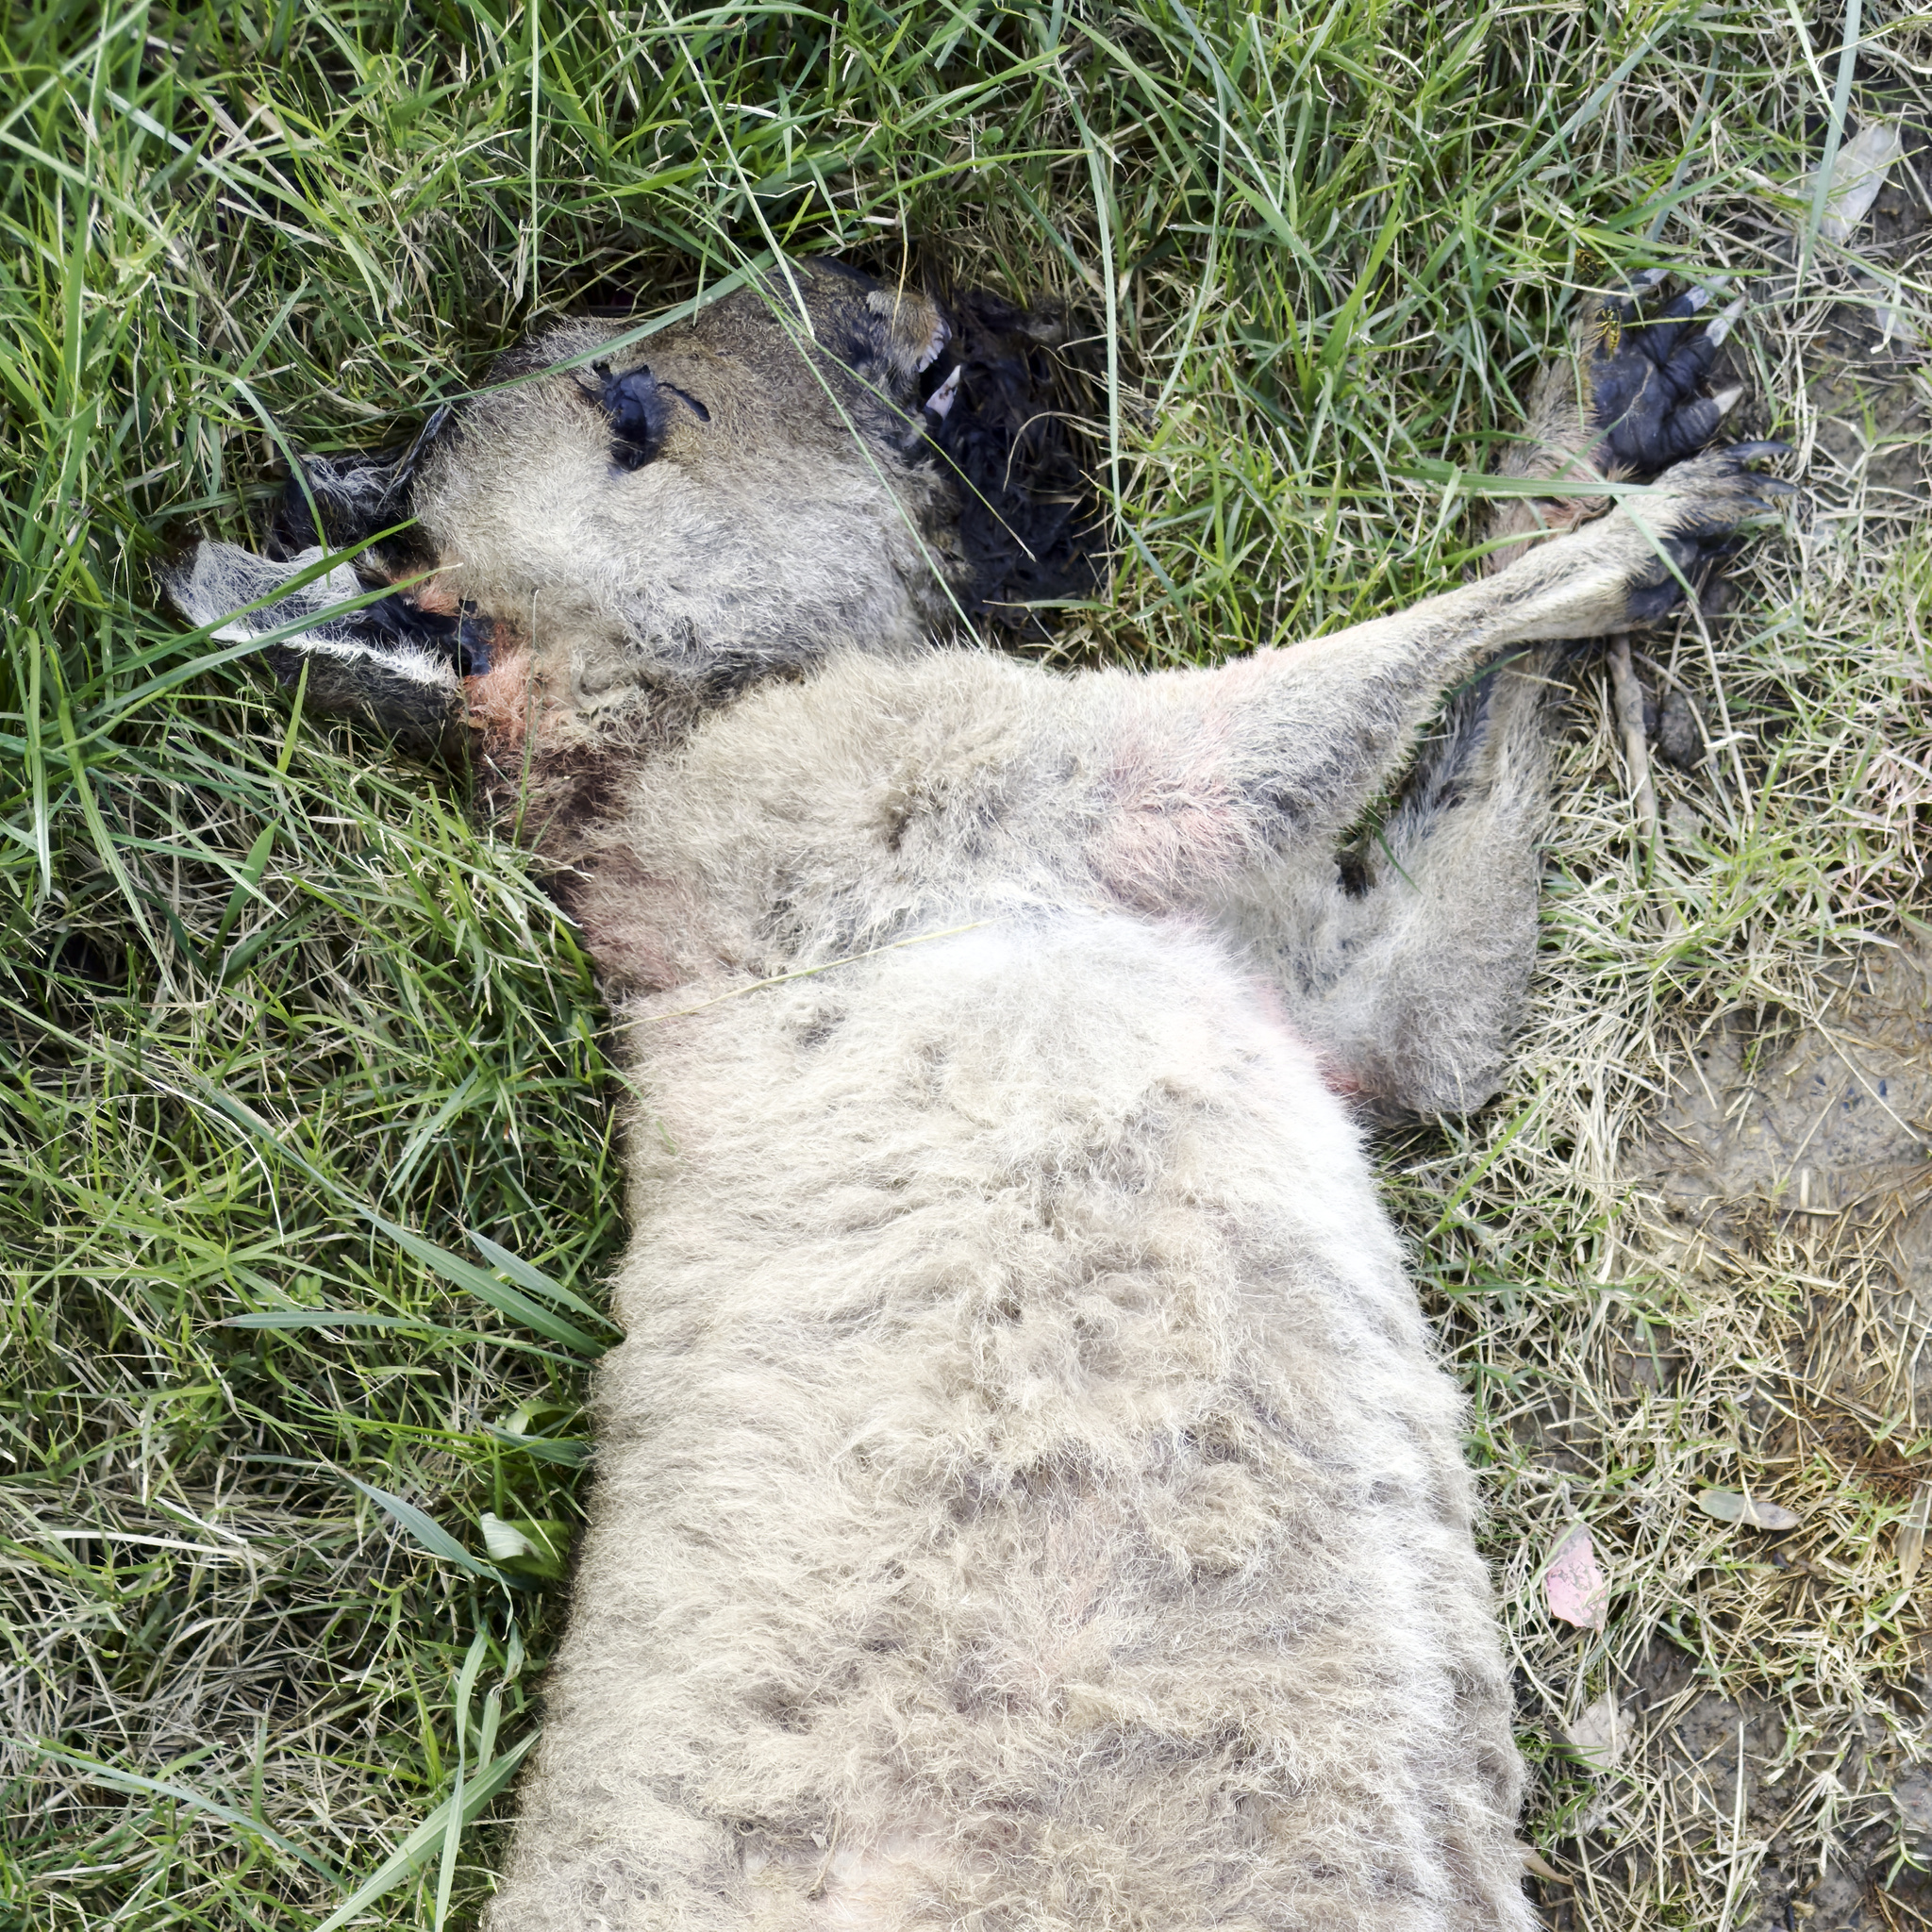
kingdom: Animalia
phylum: Chordata
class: Mammalia
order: Diprotodontia
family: Macropodidae
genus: Macropus
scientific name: Macropus giganteus
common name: Eastern grey kangaroo
